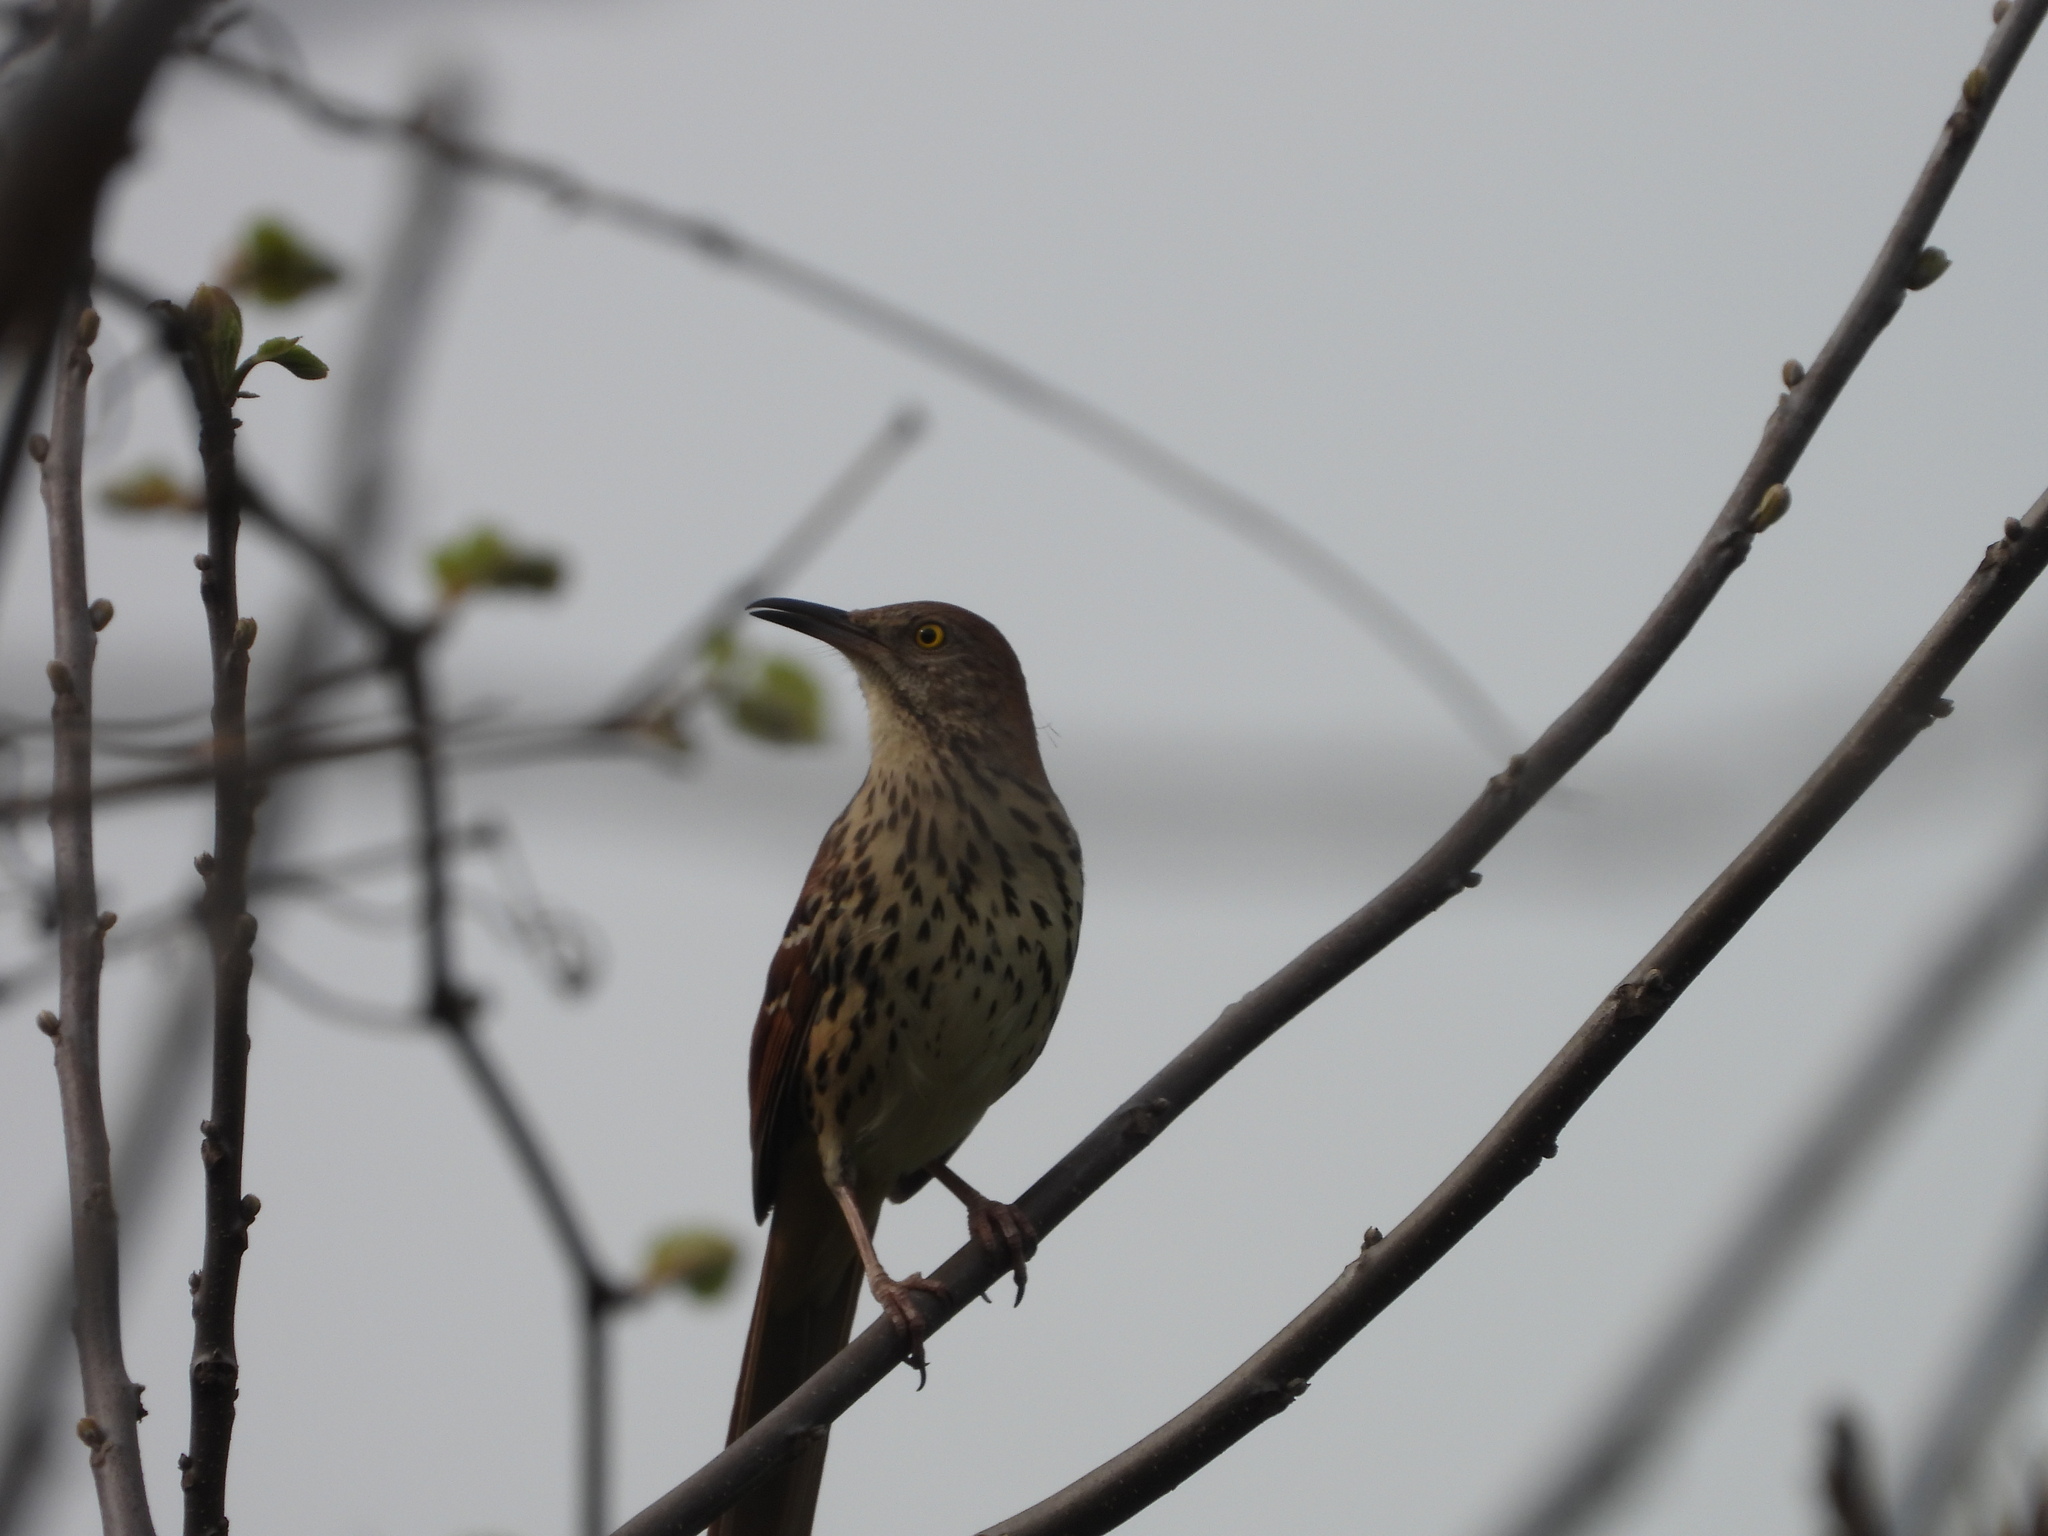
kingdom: Animalia
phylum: Chordata
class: Aves
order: Passeriformes
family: Mimidae
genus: Toxostoma
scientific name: Toxostoma rufum
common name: Brown thrasher
